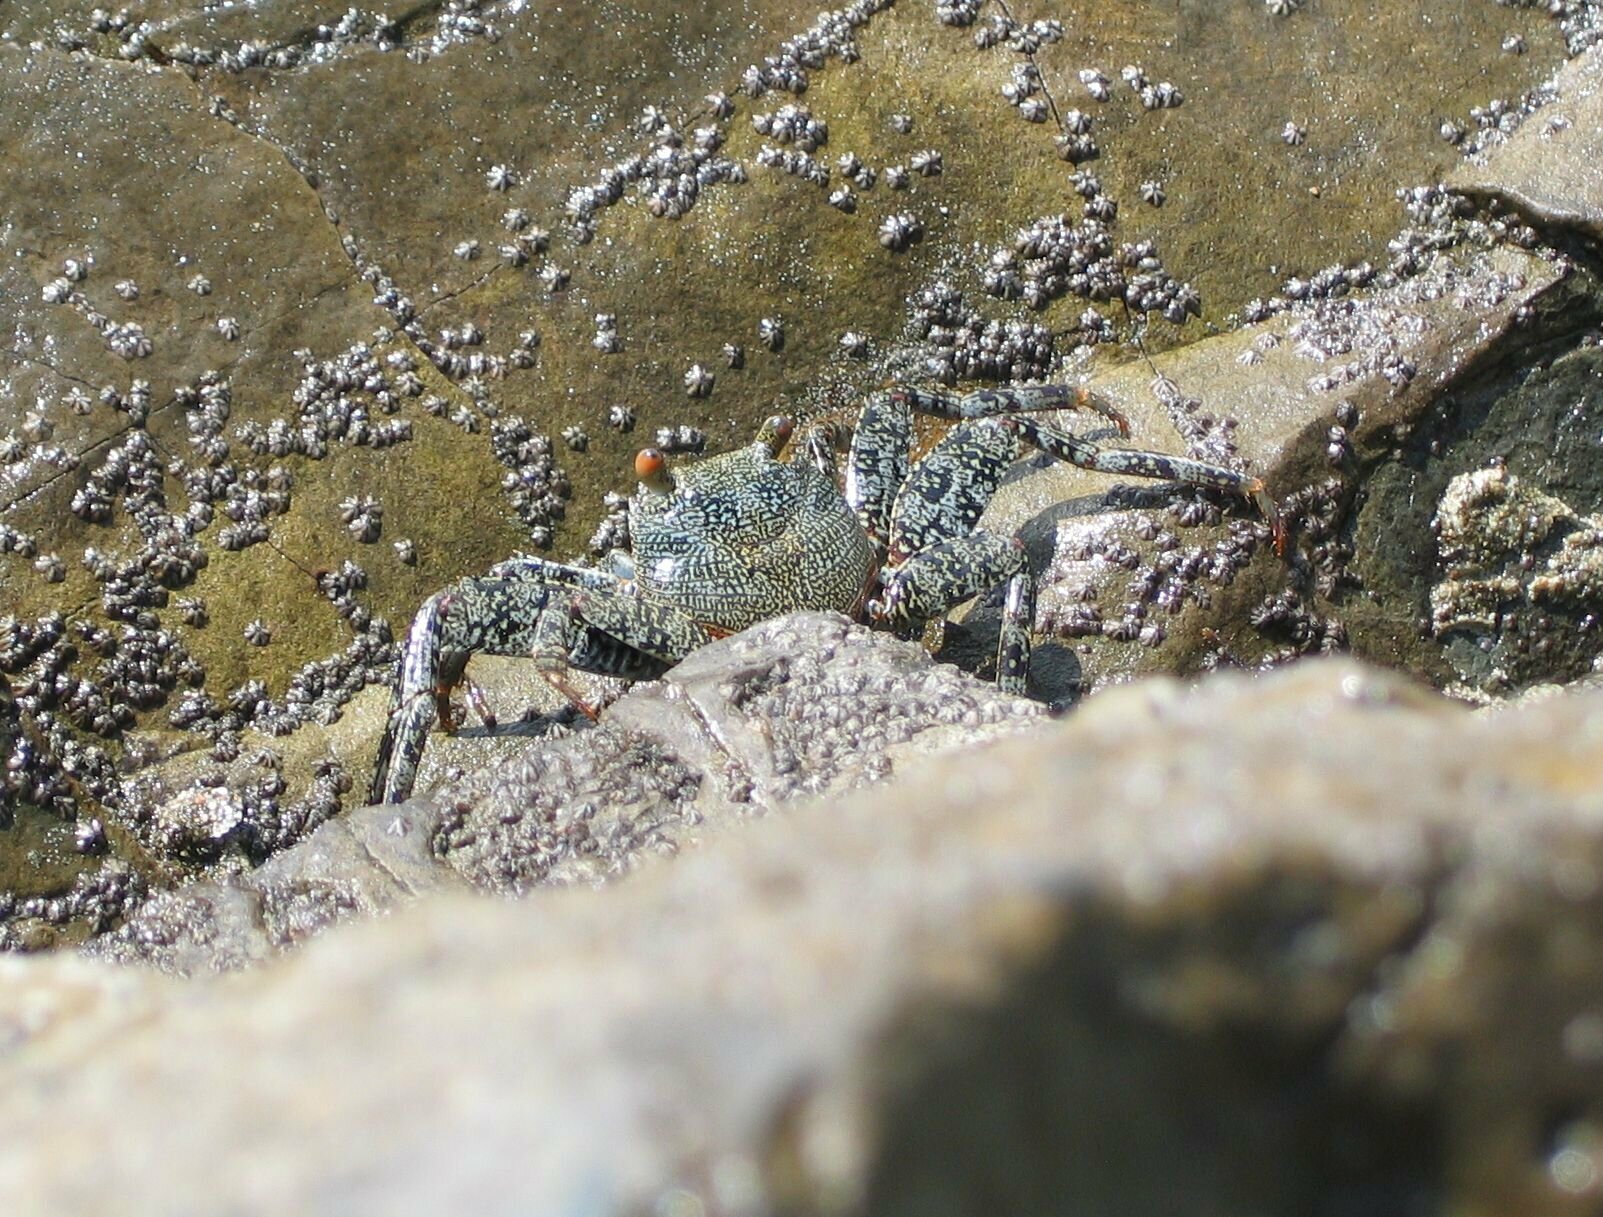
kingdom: Animalia
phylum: Arthropoda
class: Malacostraca
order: Decapoda
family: Grapsidae
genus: Grapsus
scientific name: Grapsus grapsus
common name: Sally lightfoot
